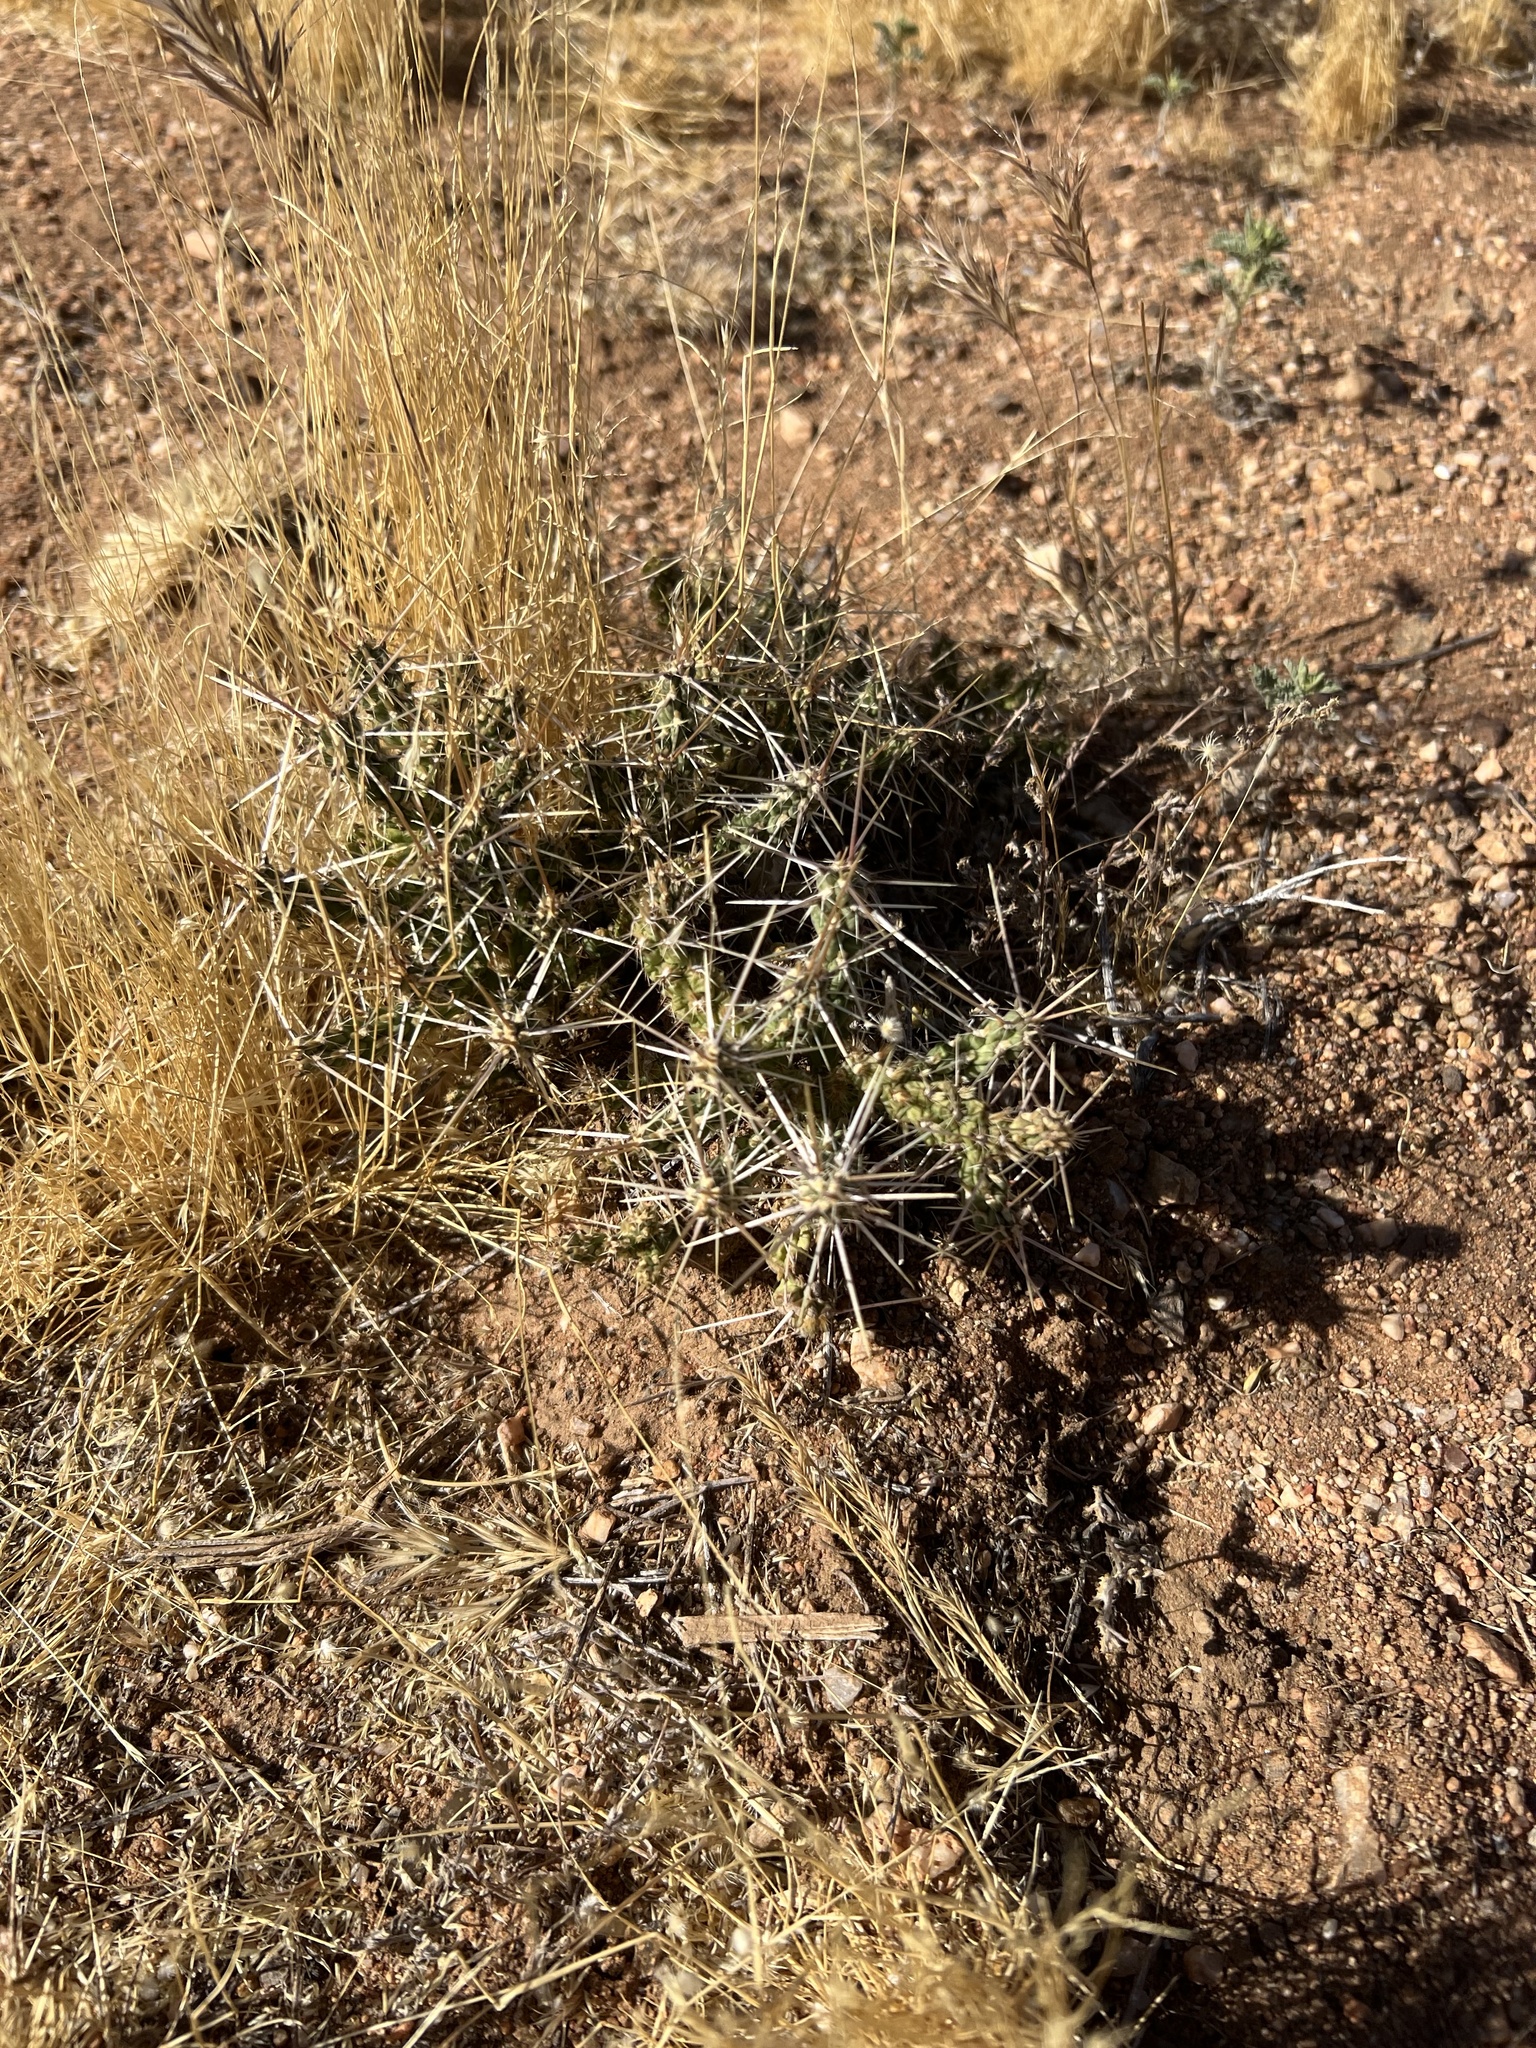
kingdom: Plantae
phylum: Tracheophyta
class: Magnoliopsida
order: Caryophyllales
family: Cactaceae
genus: Cylindropuntia
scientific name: Cylindropuntia whipplei
